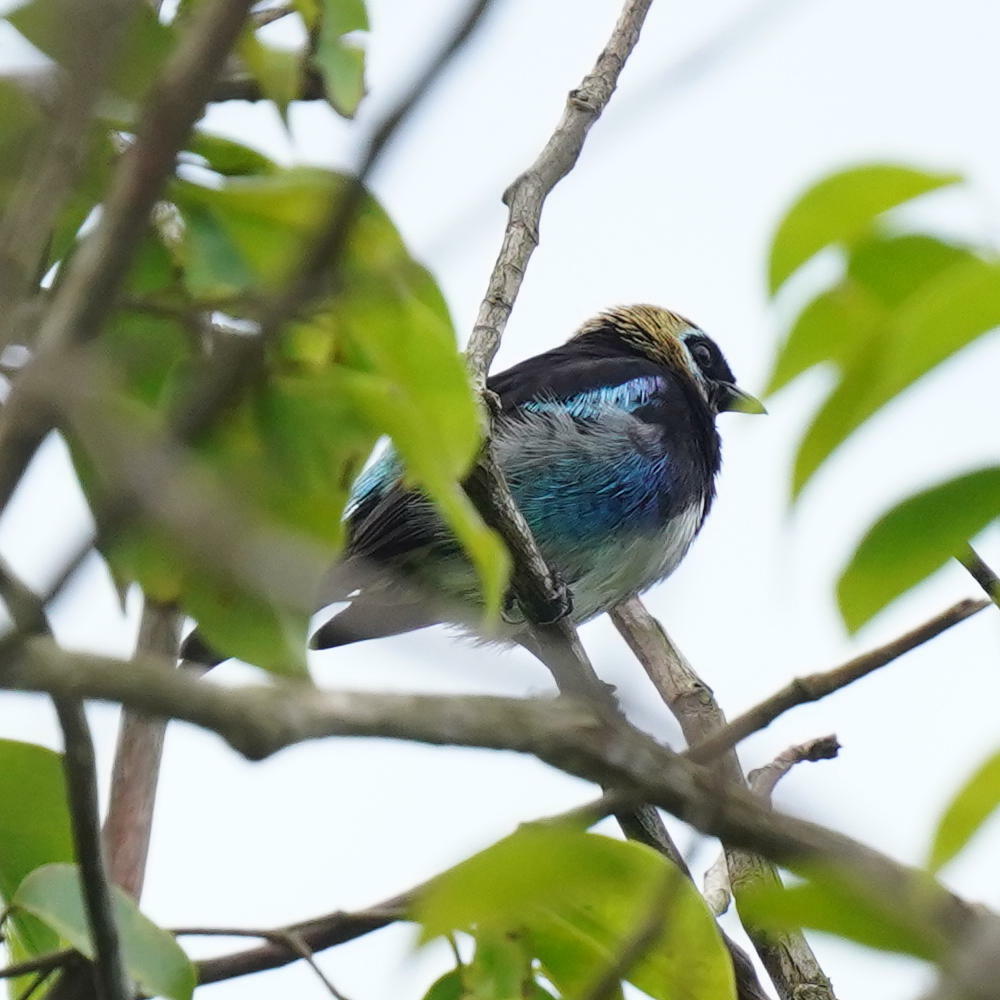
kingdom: Animalia
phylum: Chordata
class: Aves
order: Passeriformes
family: Thraupidae
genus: Stilpnia
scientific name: Stilpnia larvata
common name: Golden-hooded tanager
